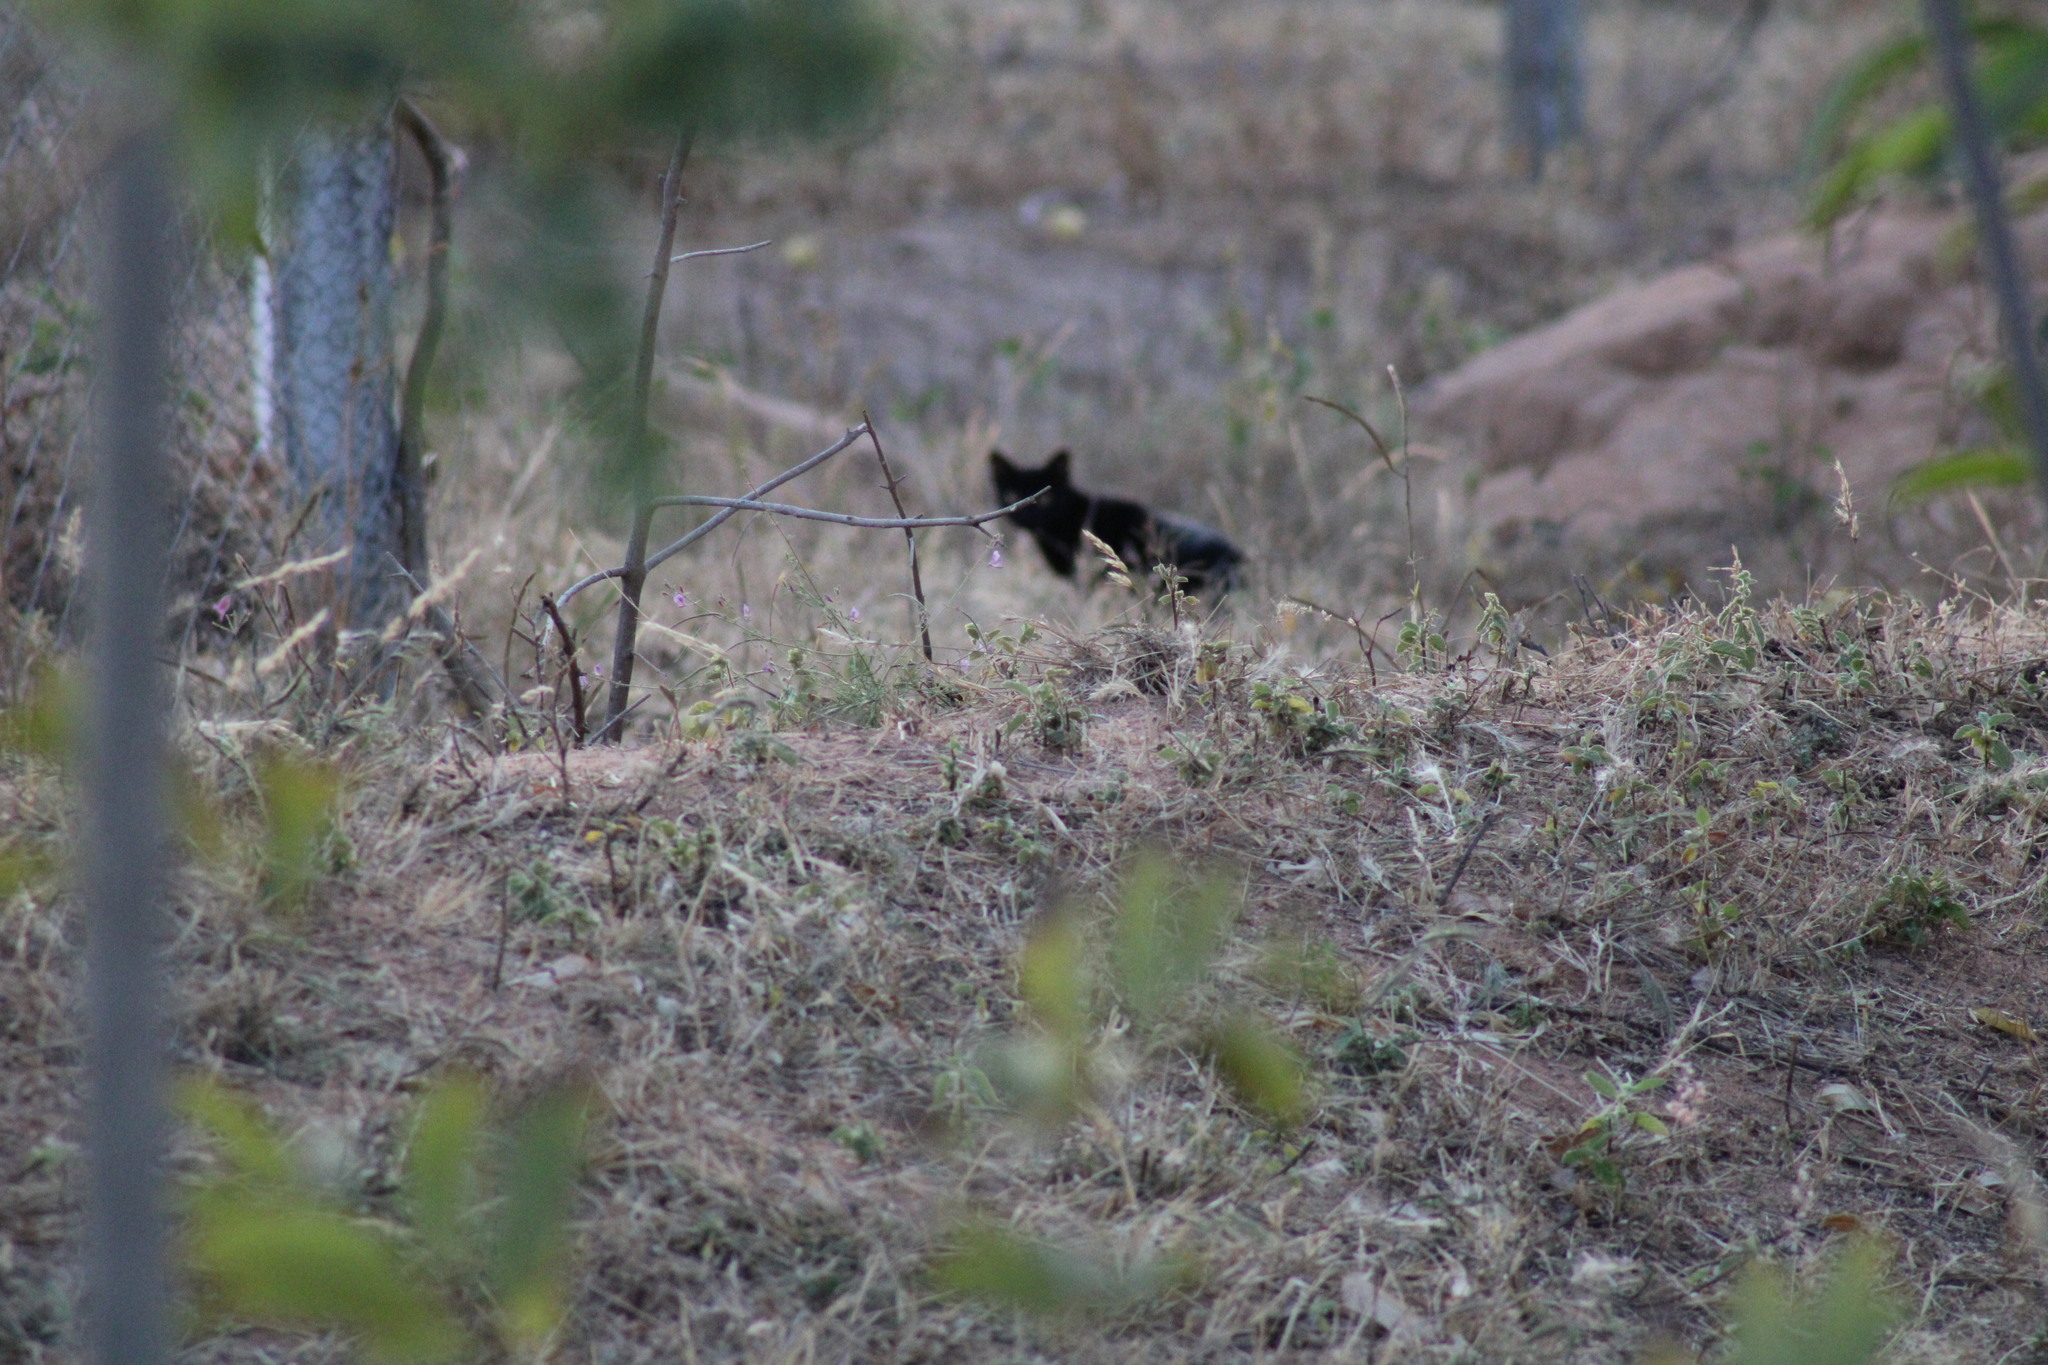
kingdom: Animalia
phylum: Chordata
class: Mammalia
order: Carnivora
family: Felidae
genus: Felis
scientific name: Felis catus
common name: Domestic cat
